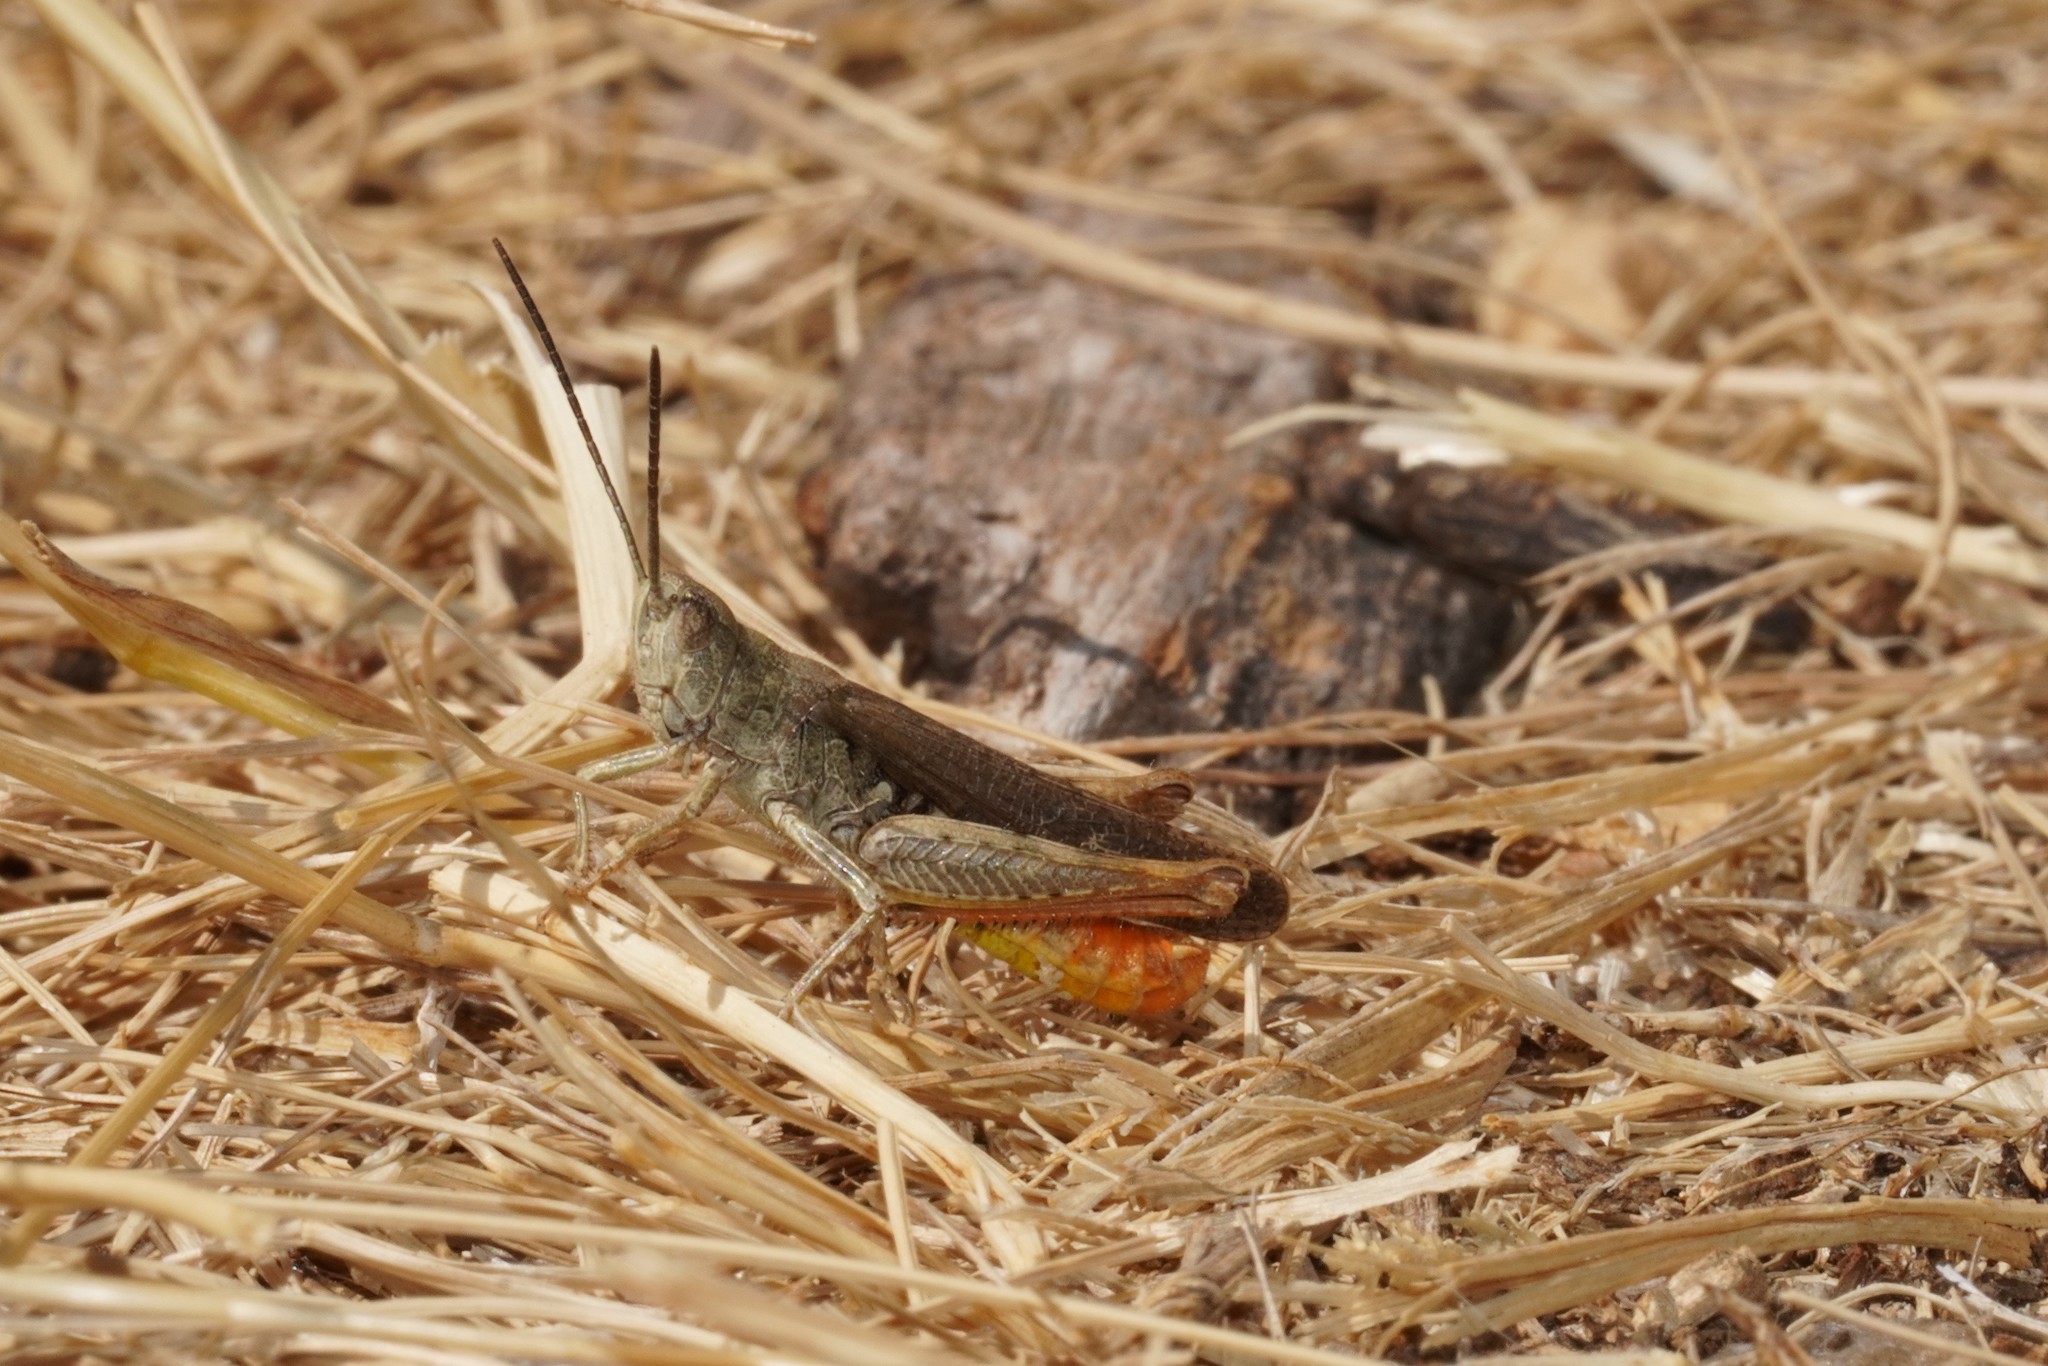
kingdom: Animalia
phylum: Arthropoda
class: Insecta
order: Orthoptera
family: Acrididae
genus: Chorthippus
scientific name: Chorthippus brunneus
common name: Field grasshopper
